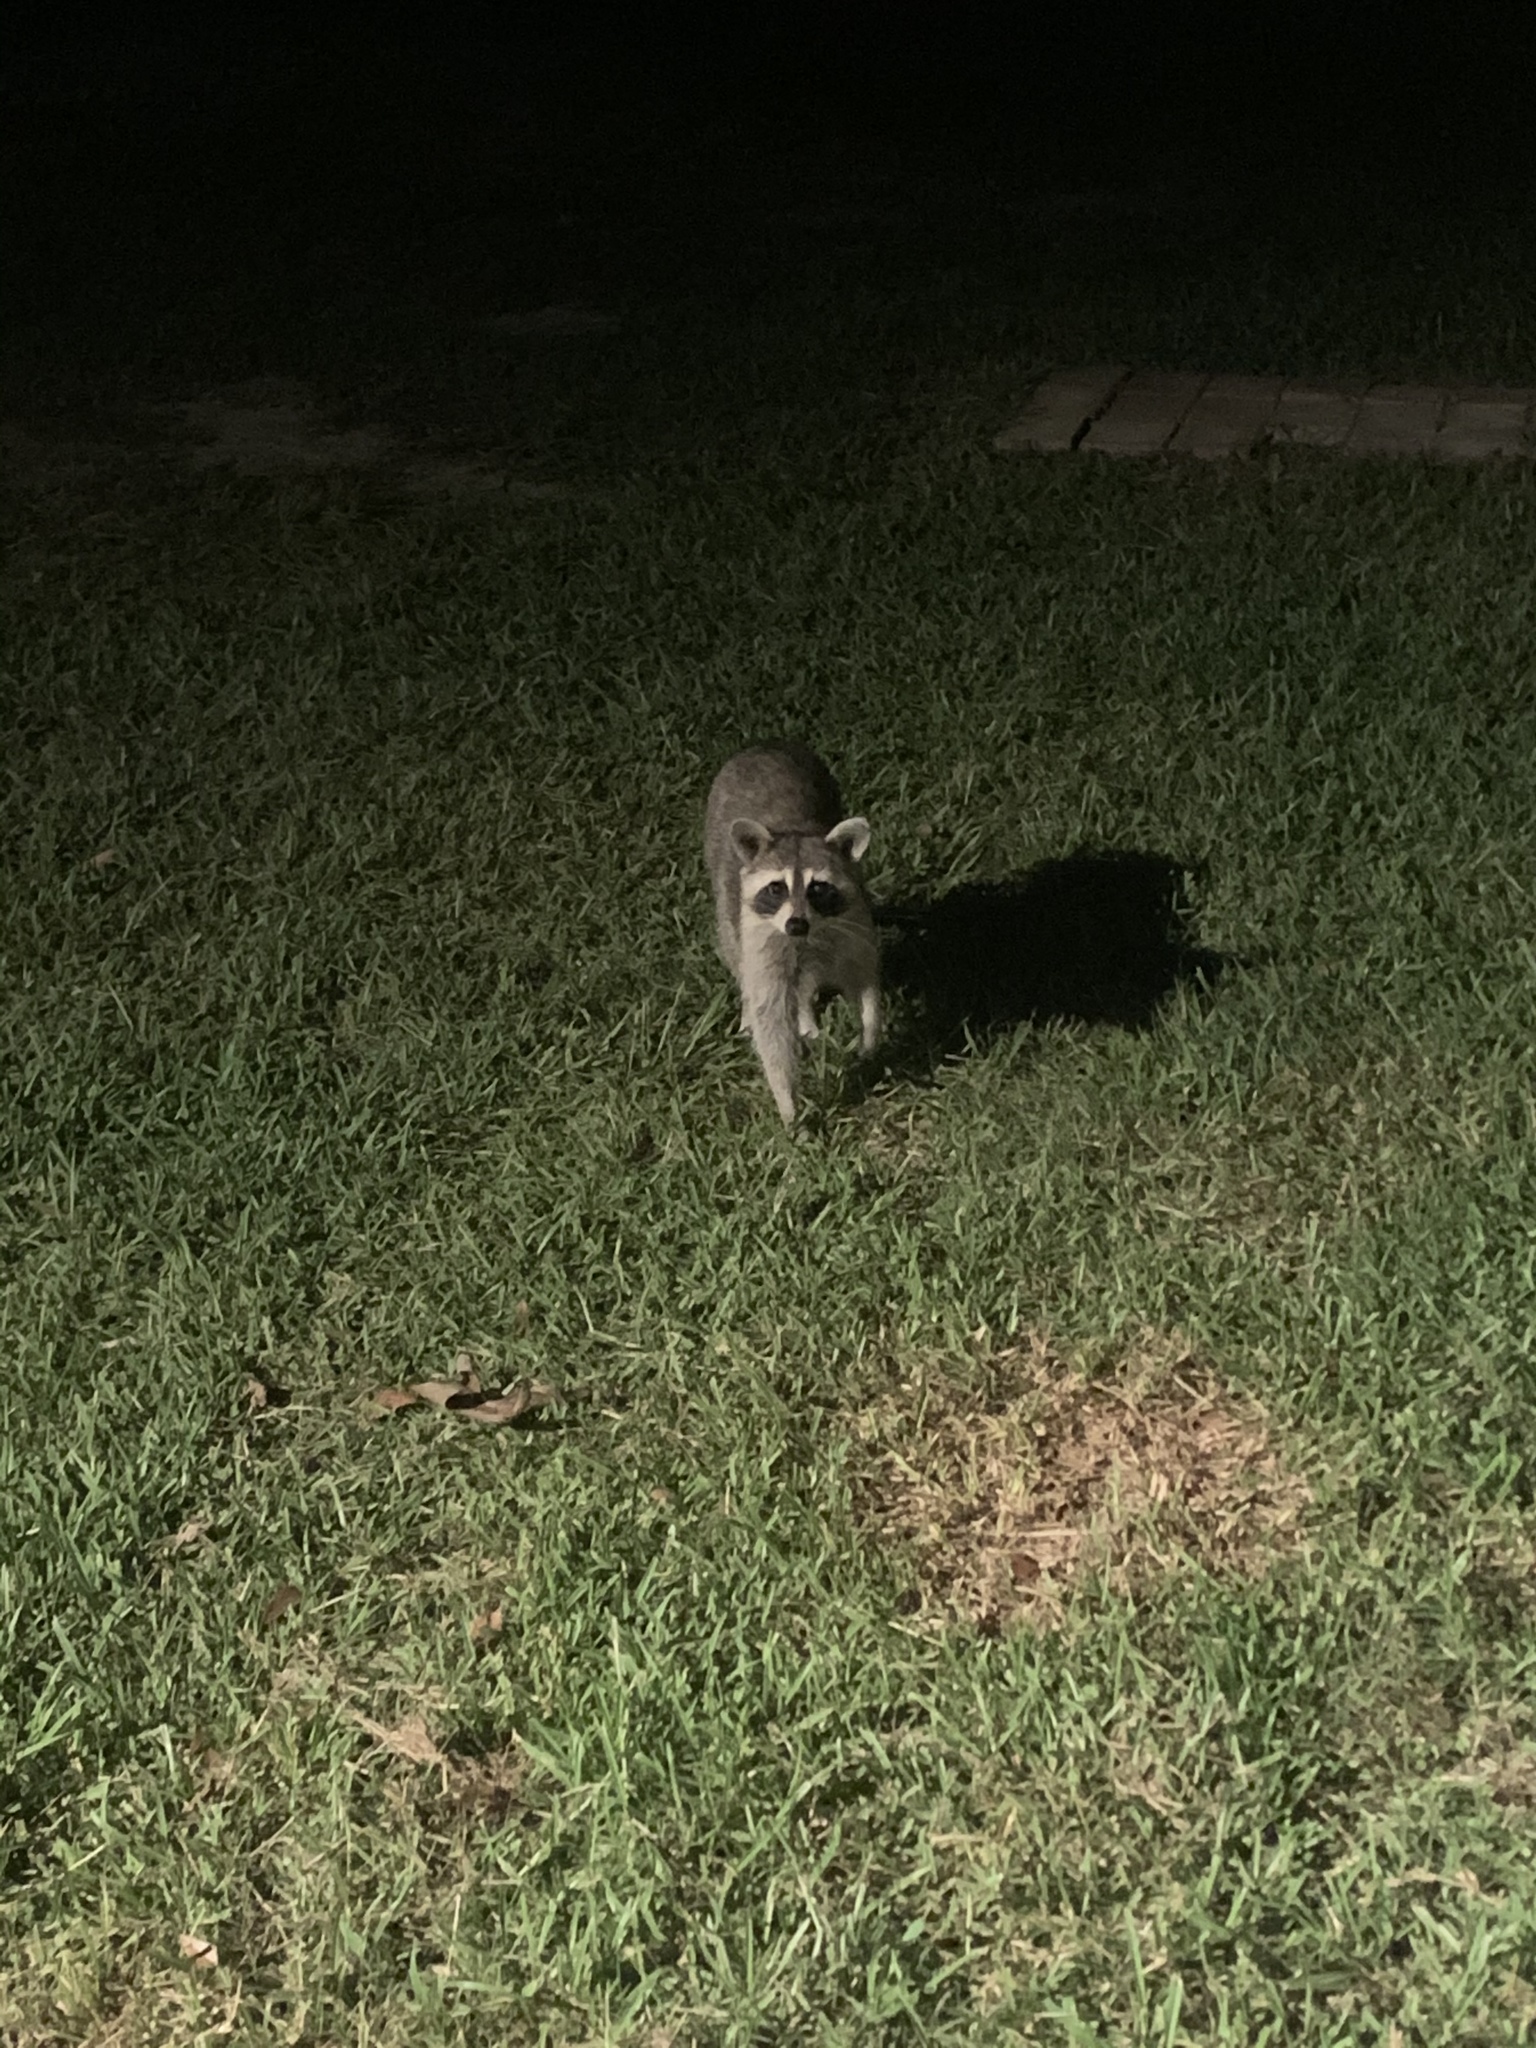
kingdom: Animalia
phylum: Chordata
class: Mammalia
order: Carnivora
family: Procyonidae
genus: Procyon
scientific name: Procyon lotor
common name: Raccoon
